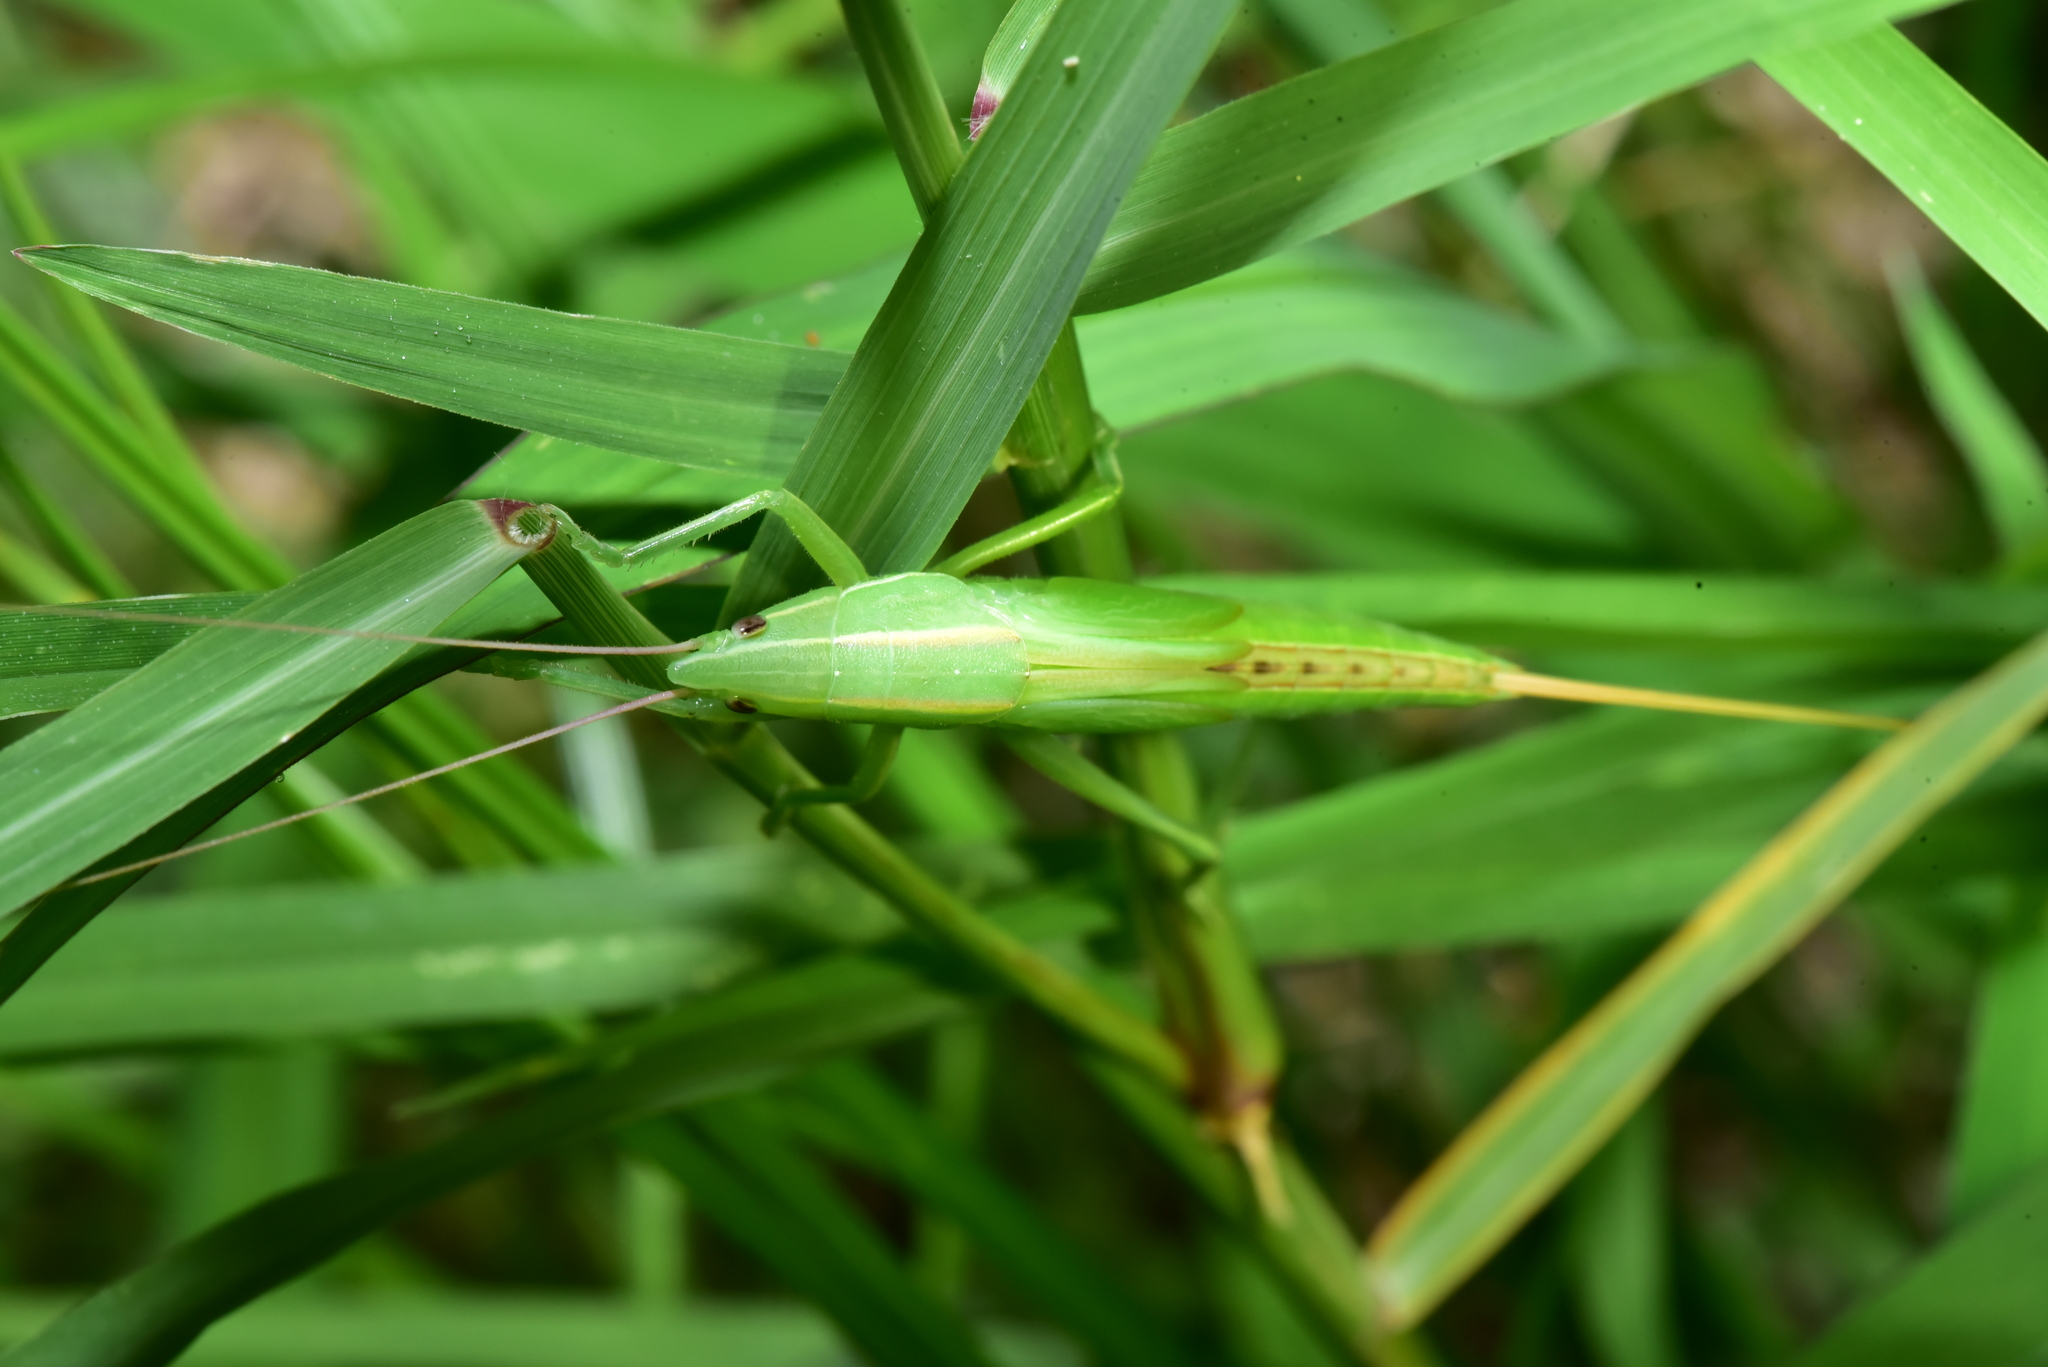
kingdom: Animalia
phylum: Arthropoda
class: Insecta
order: Orthoptera
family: Tettigoniidae
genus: Euconocephalus
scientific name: Euconocephalus nasutus
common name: Grasshopper
